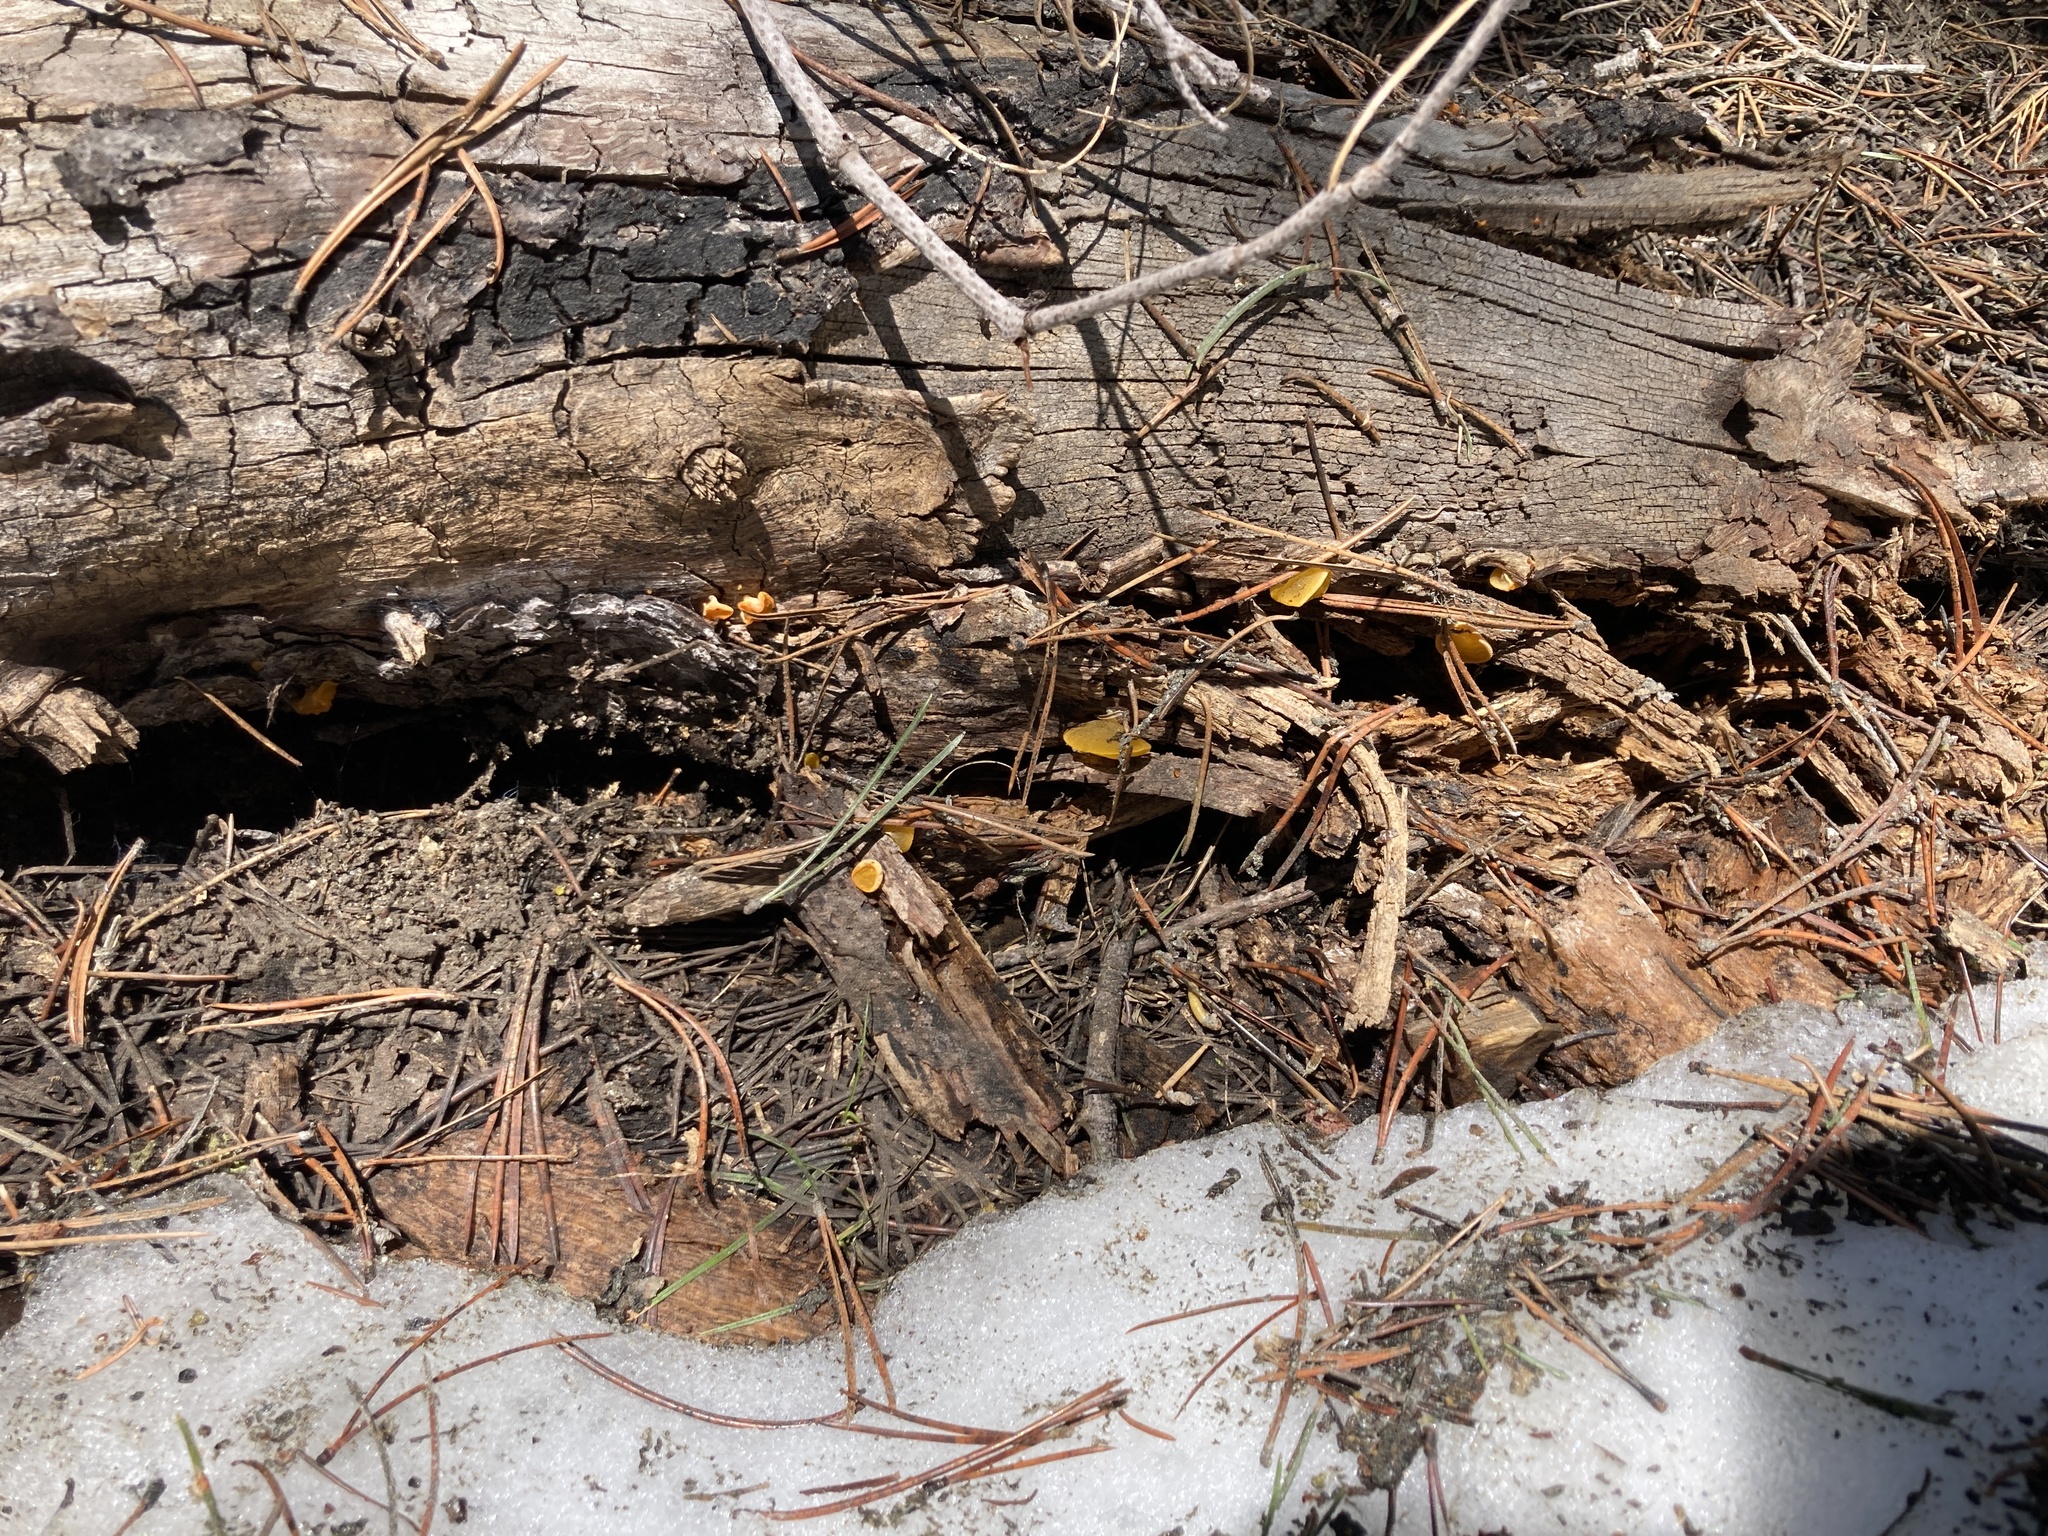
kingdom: Fungi
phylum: Basidiomycota
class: Dacrymycetes
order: Dacrymycetales
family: Dacrymycetaceae
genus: Guepiniopsis
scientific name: Guepiniopsis alpina
